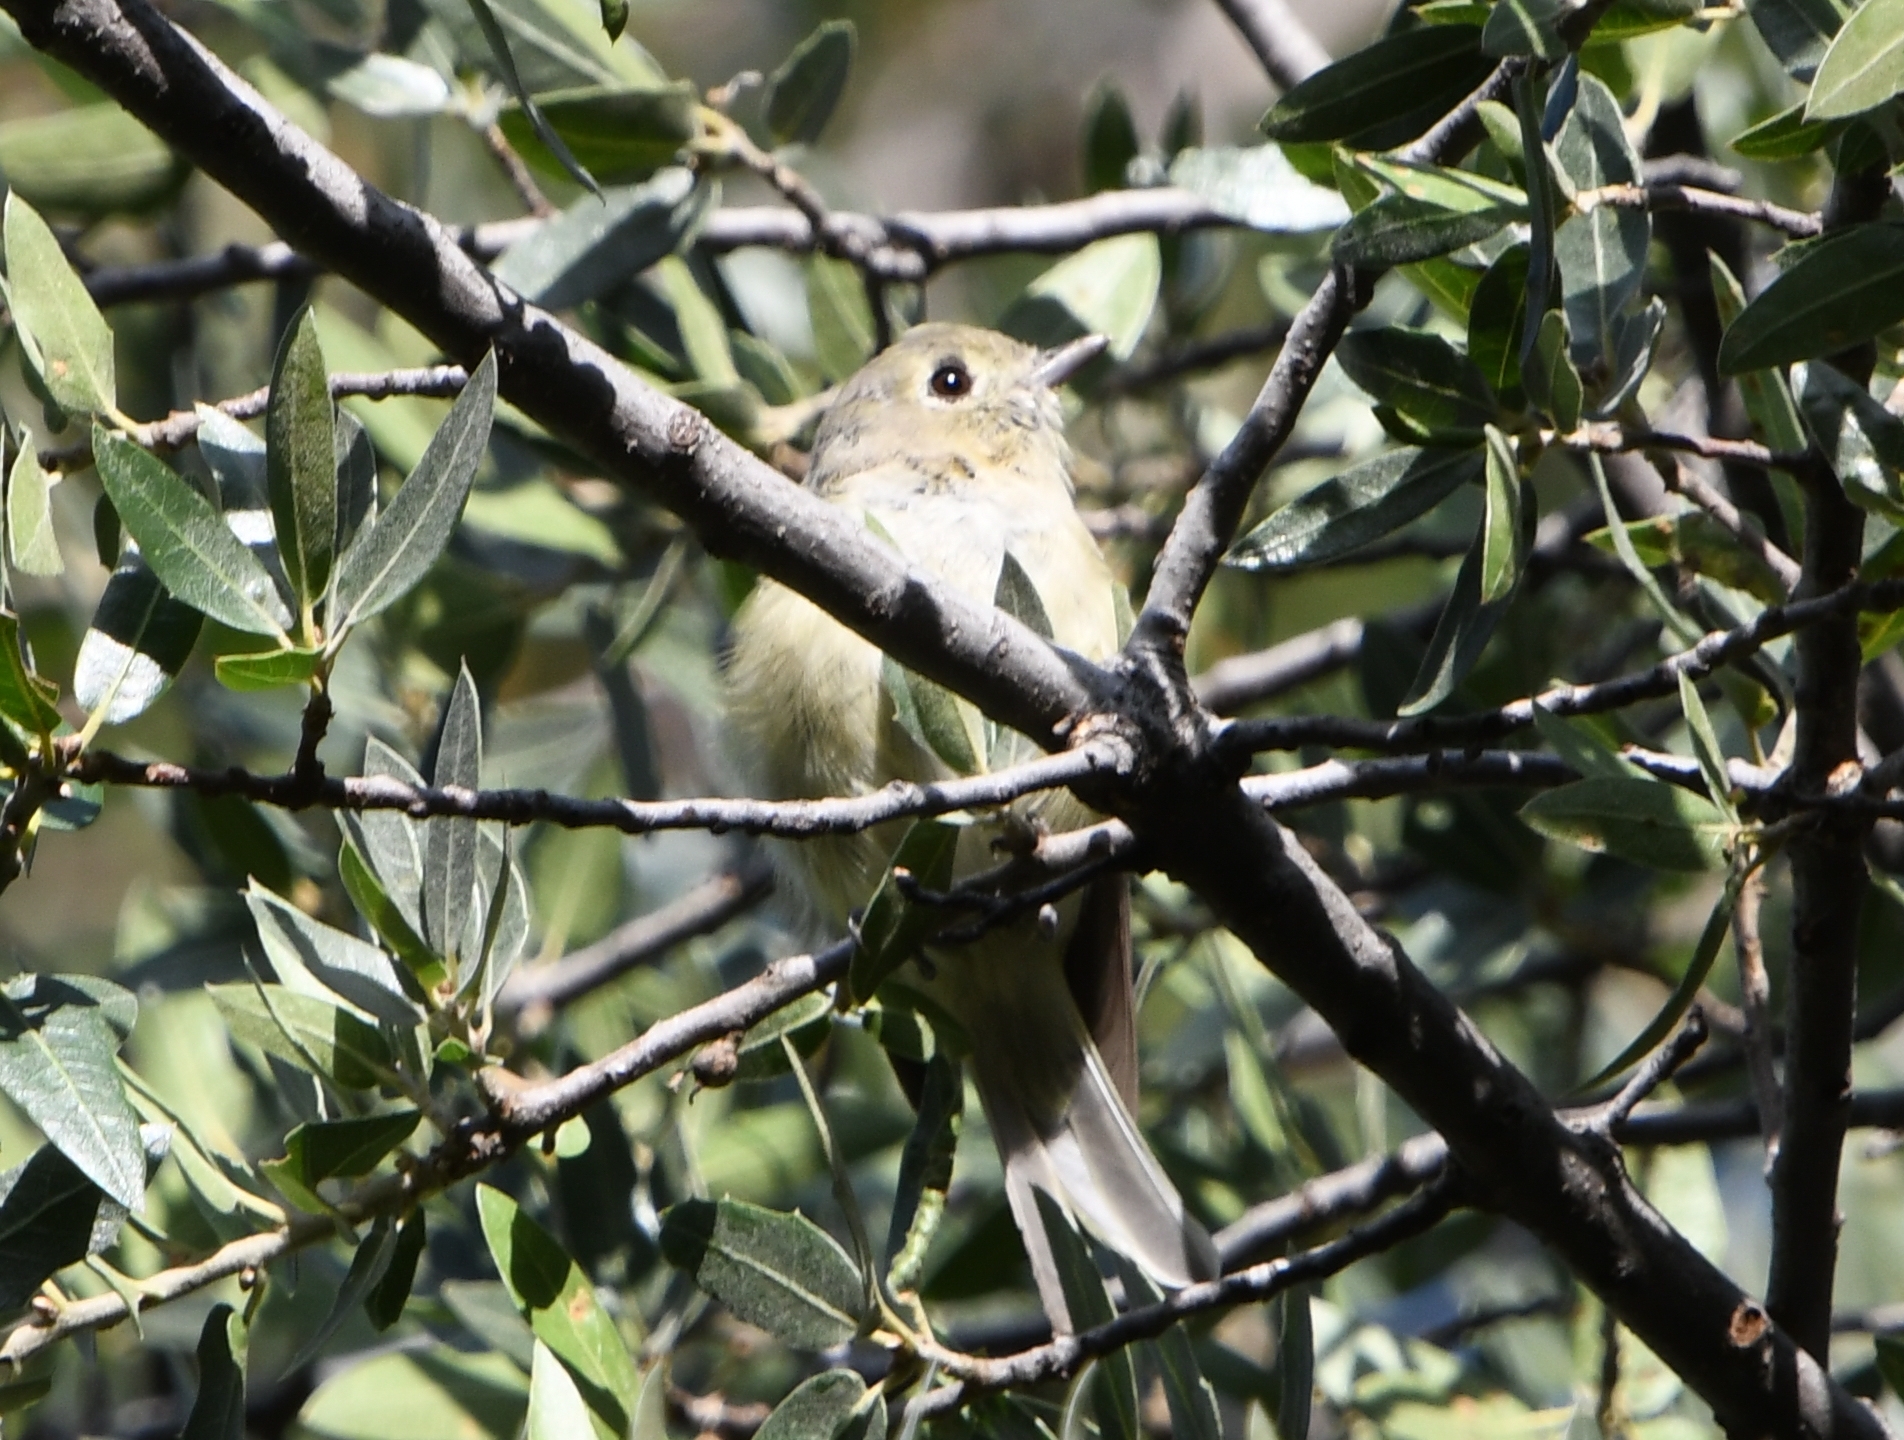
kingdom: Animalia
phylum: Chordata
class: Aves
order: Passeriformes
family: Vireonidae
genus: Vireo
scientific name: Vireo huttoni
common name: Hutton's vireo
